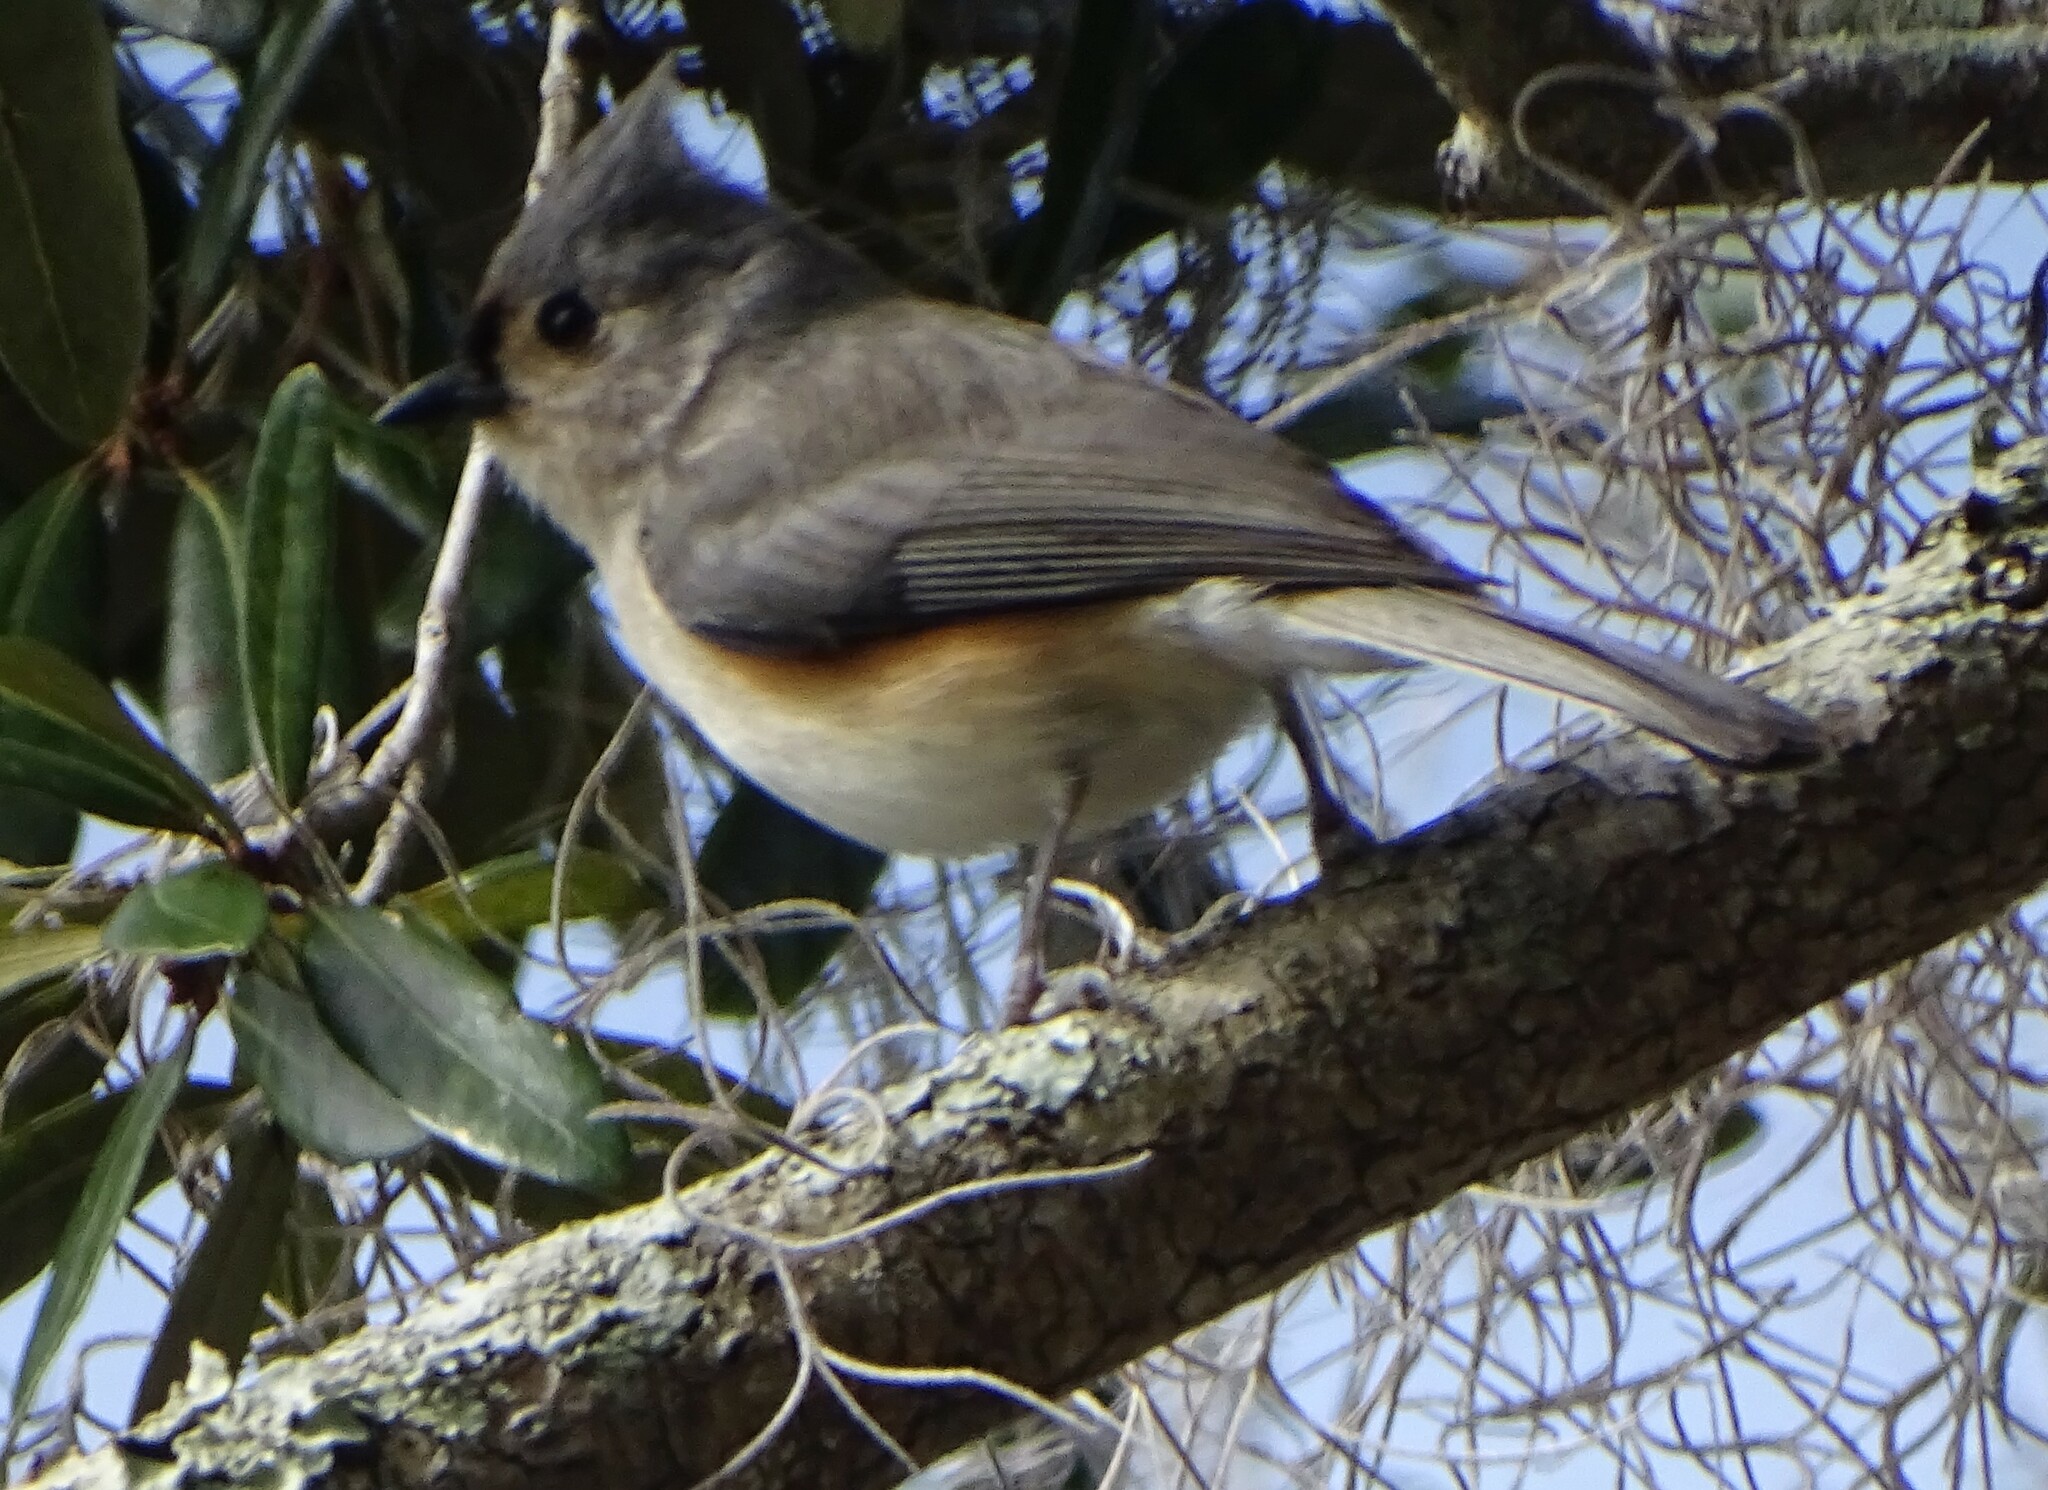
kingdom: Animalia
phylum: Chordata
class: Aves
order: Passeriformes
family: Paridae
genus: Baeolophus
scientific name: Baeolophus bicolor
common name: Tufted titmouse
